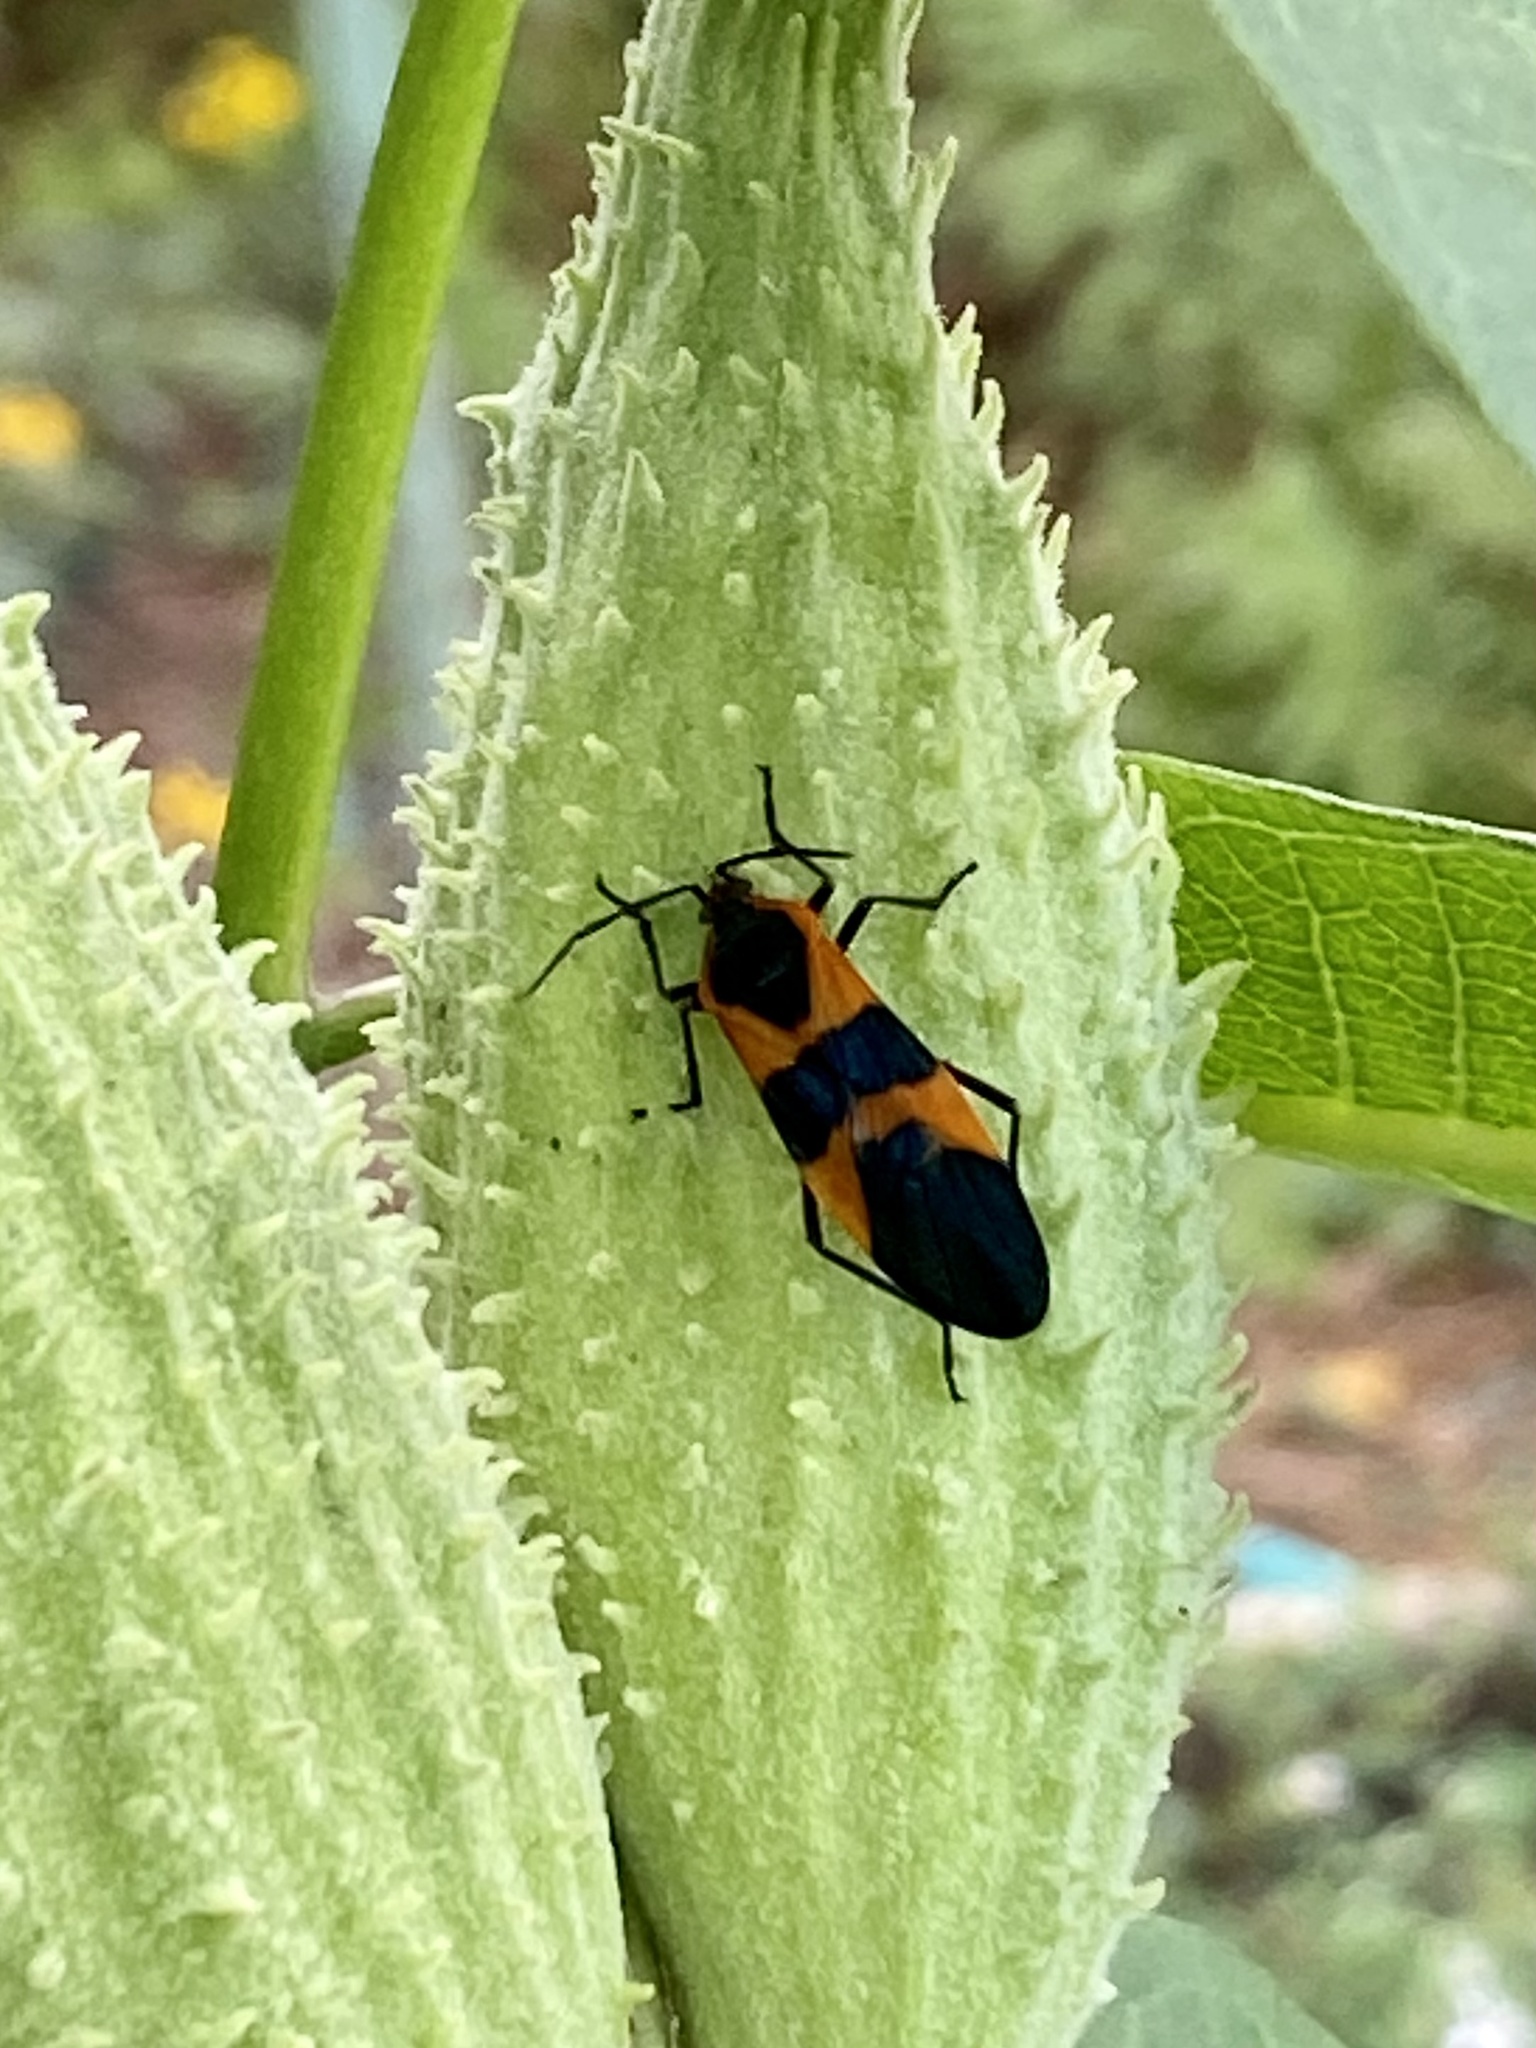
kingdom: Animalia
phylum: Arthropoda
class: Insecta
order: Hemiptera
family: Lygaeidae
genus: Oncopeltus
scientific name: Oncopeltus fasciatus
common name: Large milkweed bug
